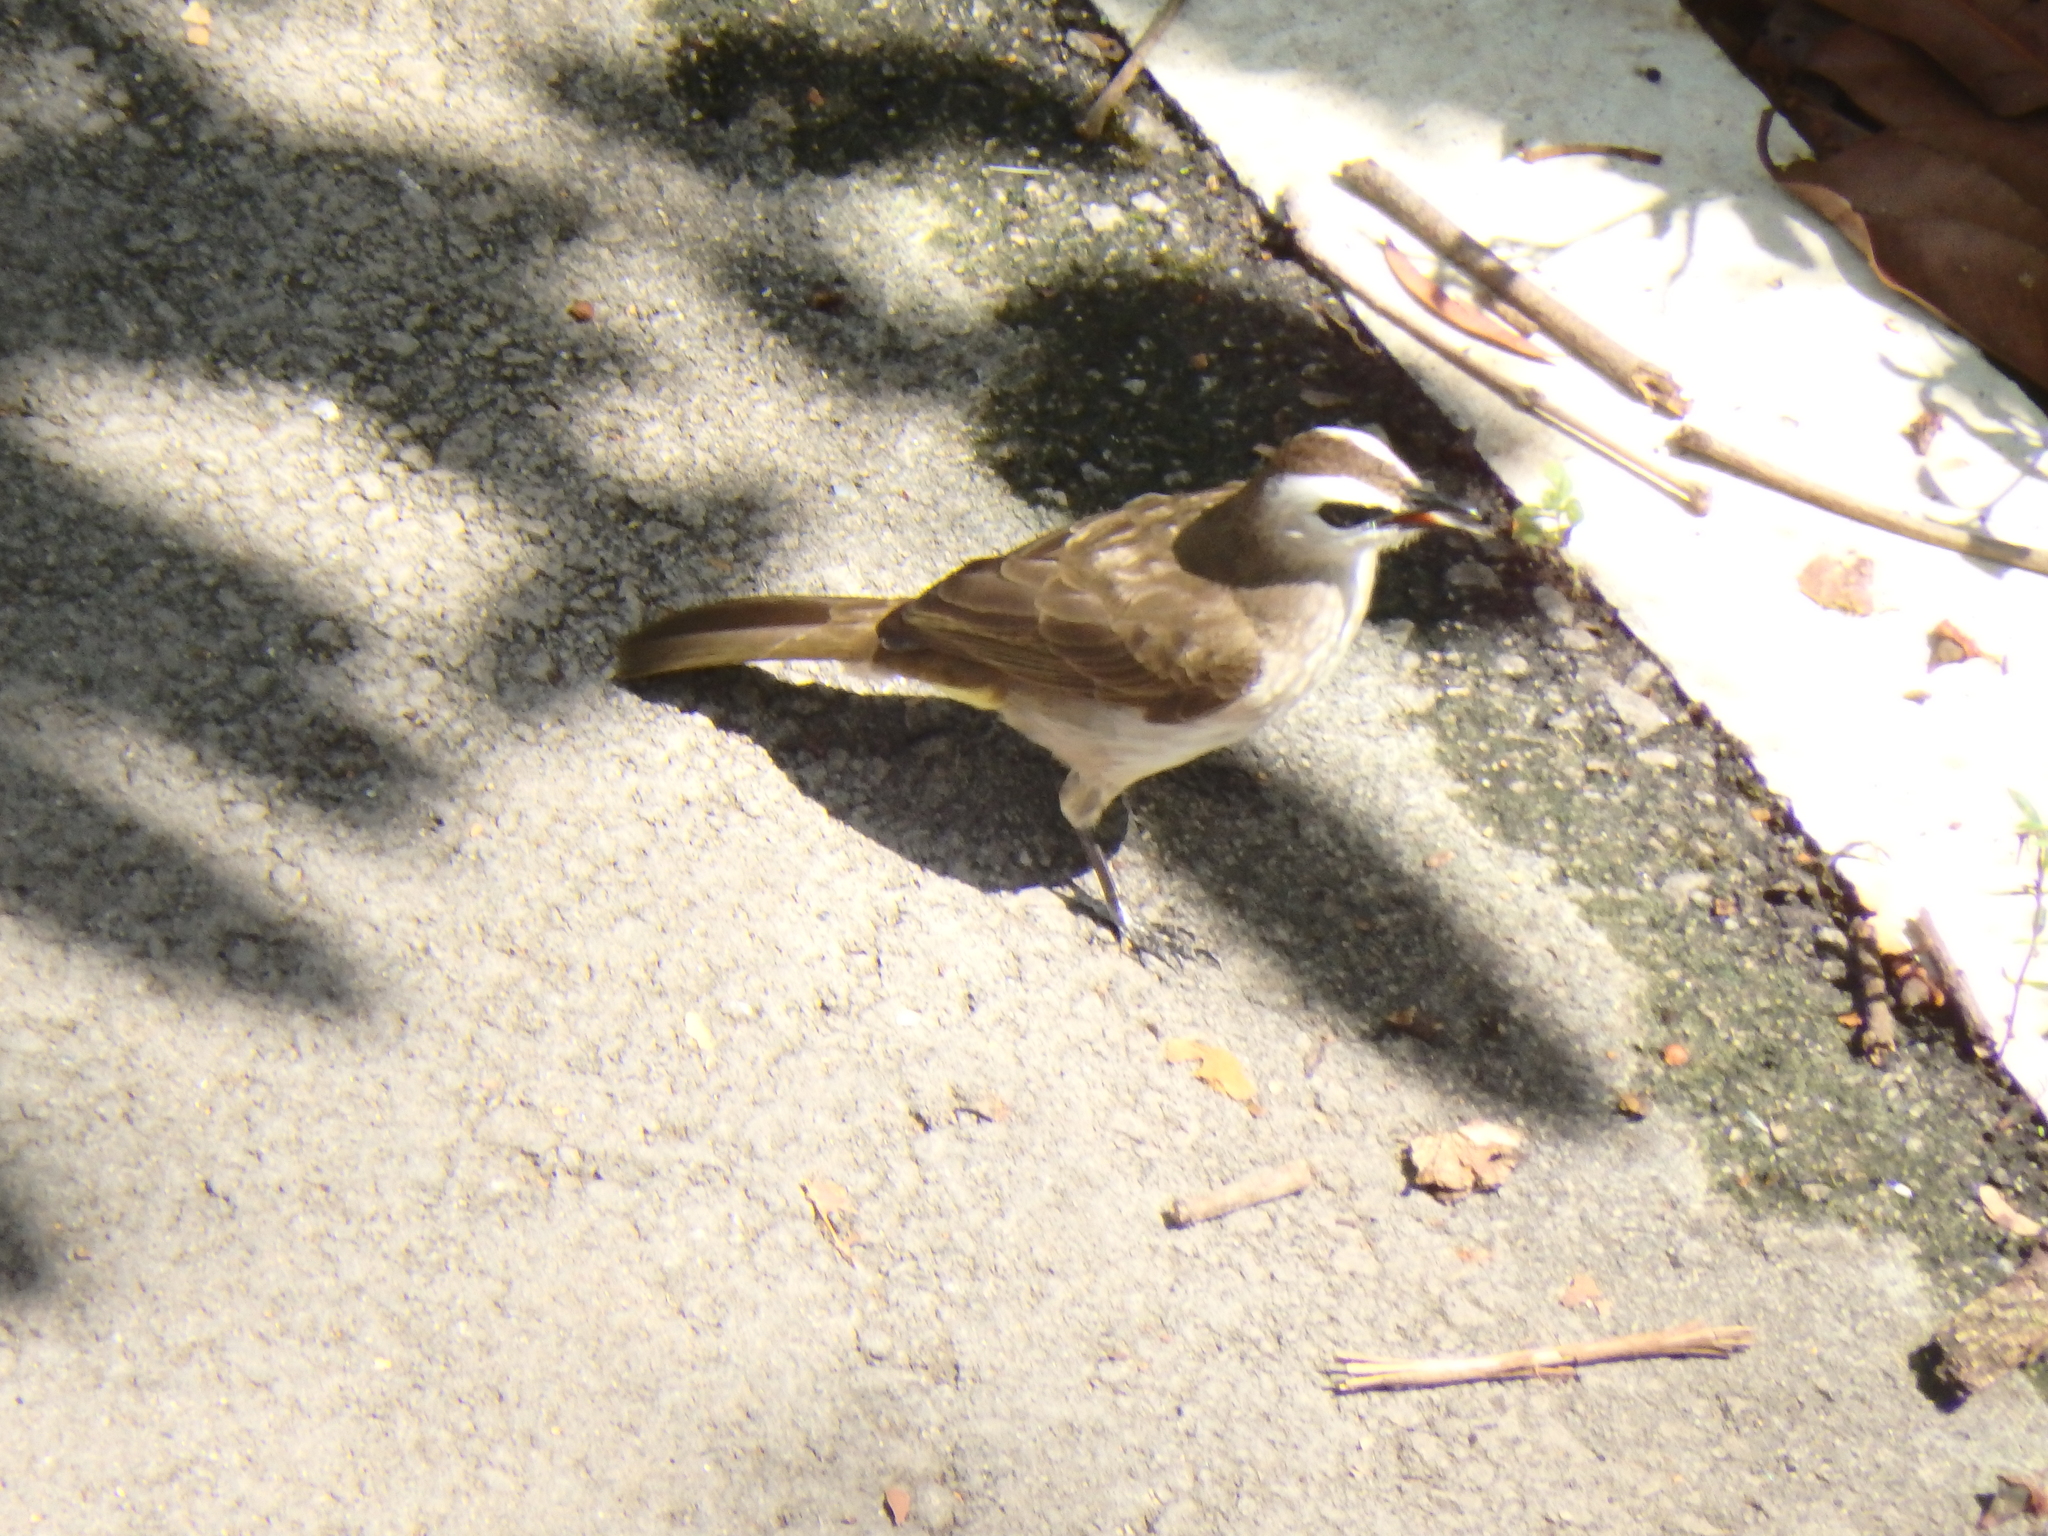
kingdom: Animalia
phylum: Chordata
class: Aves
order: Passeriformes
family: Pycnonotidae
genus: Pycnonotus
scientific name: Pycnonotus goiavier
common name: Yellow-vented bulbul
